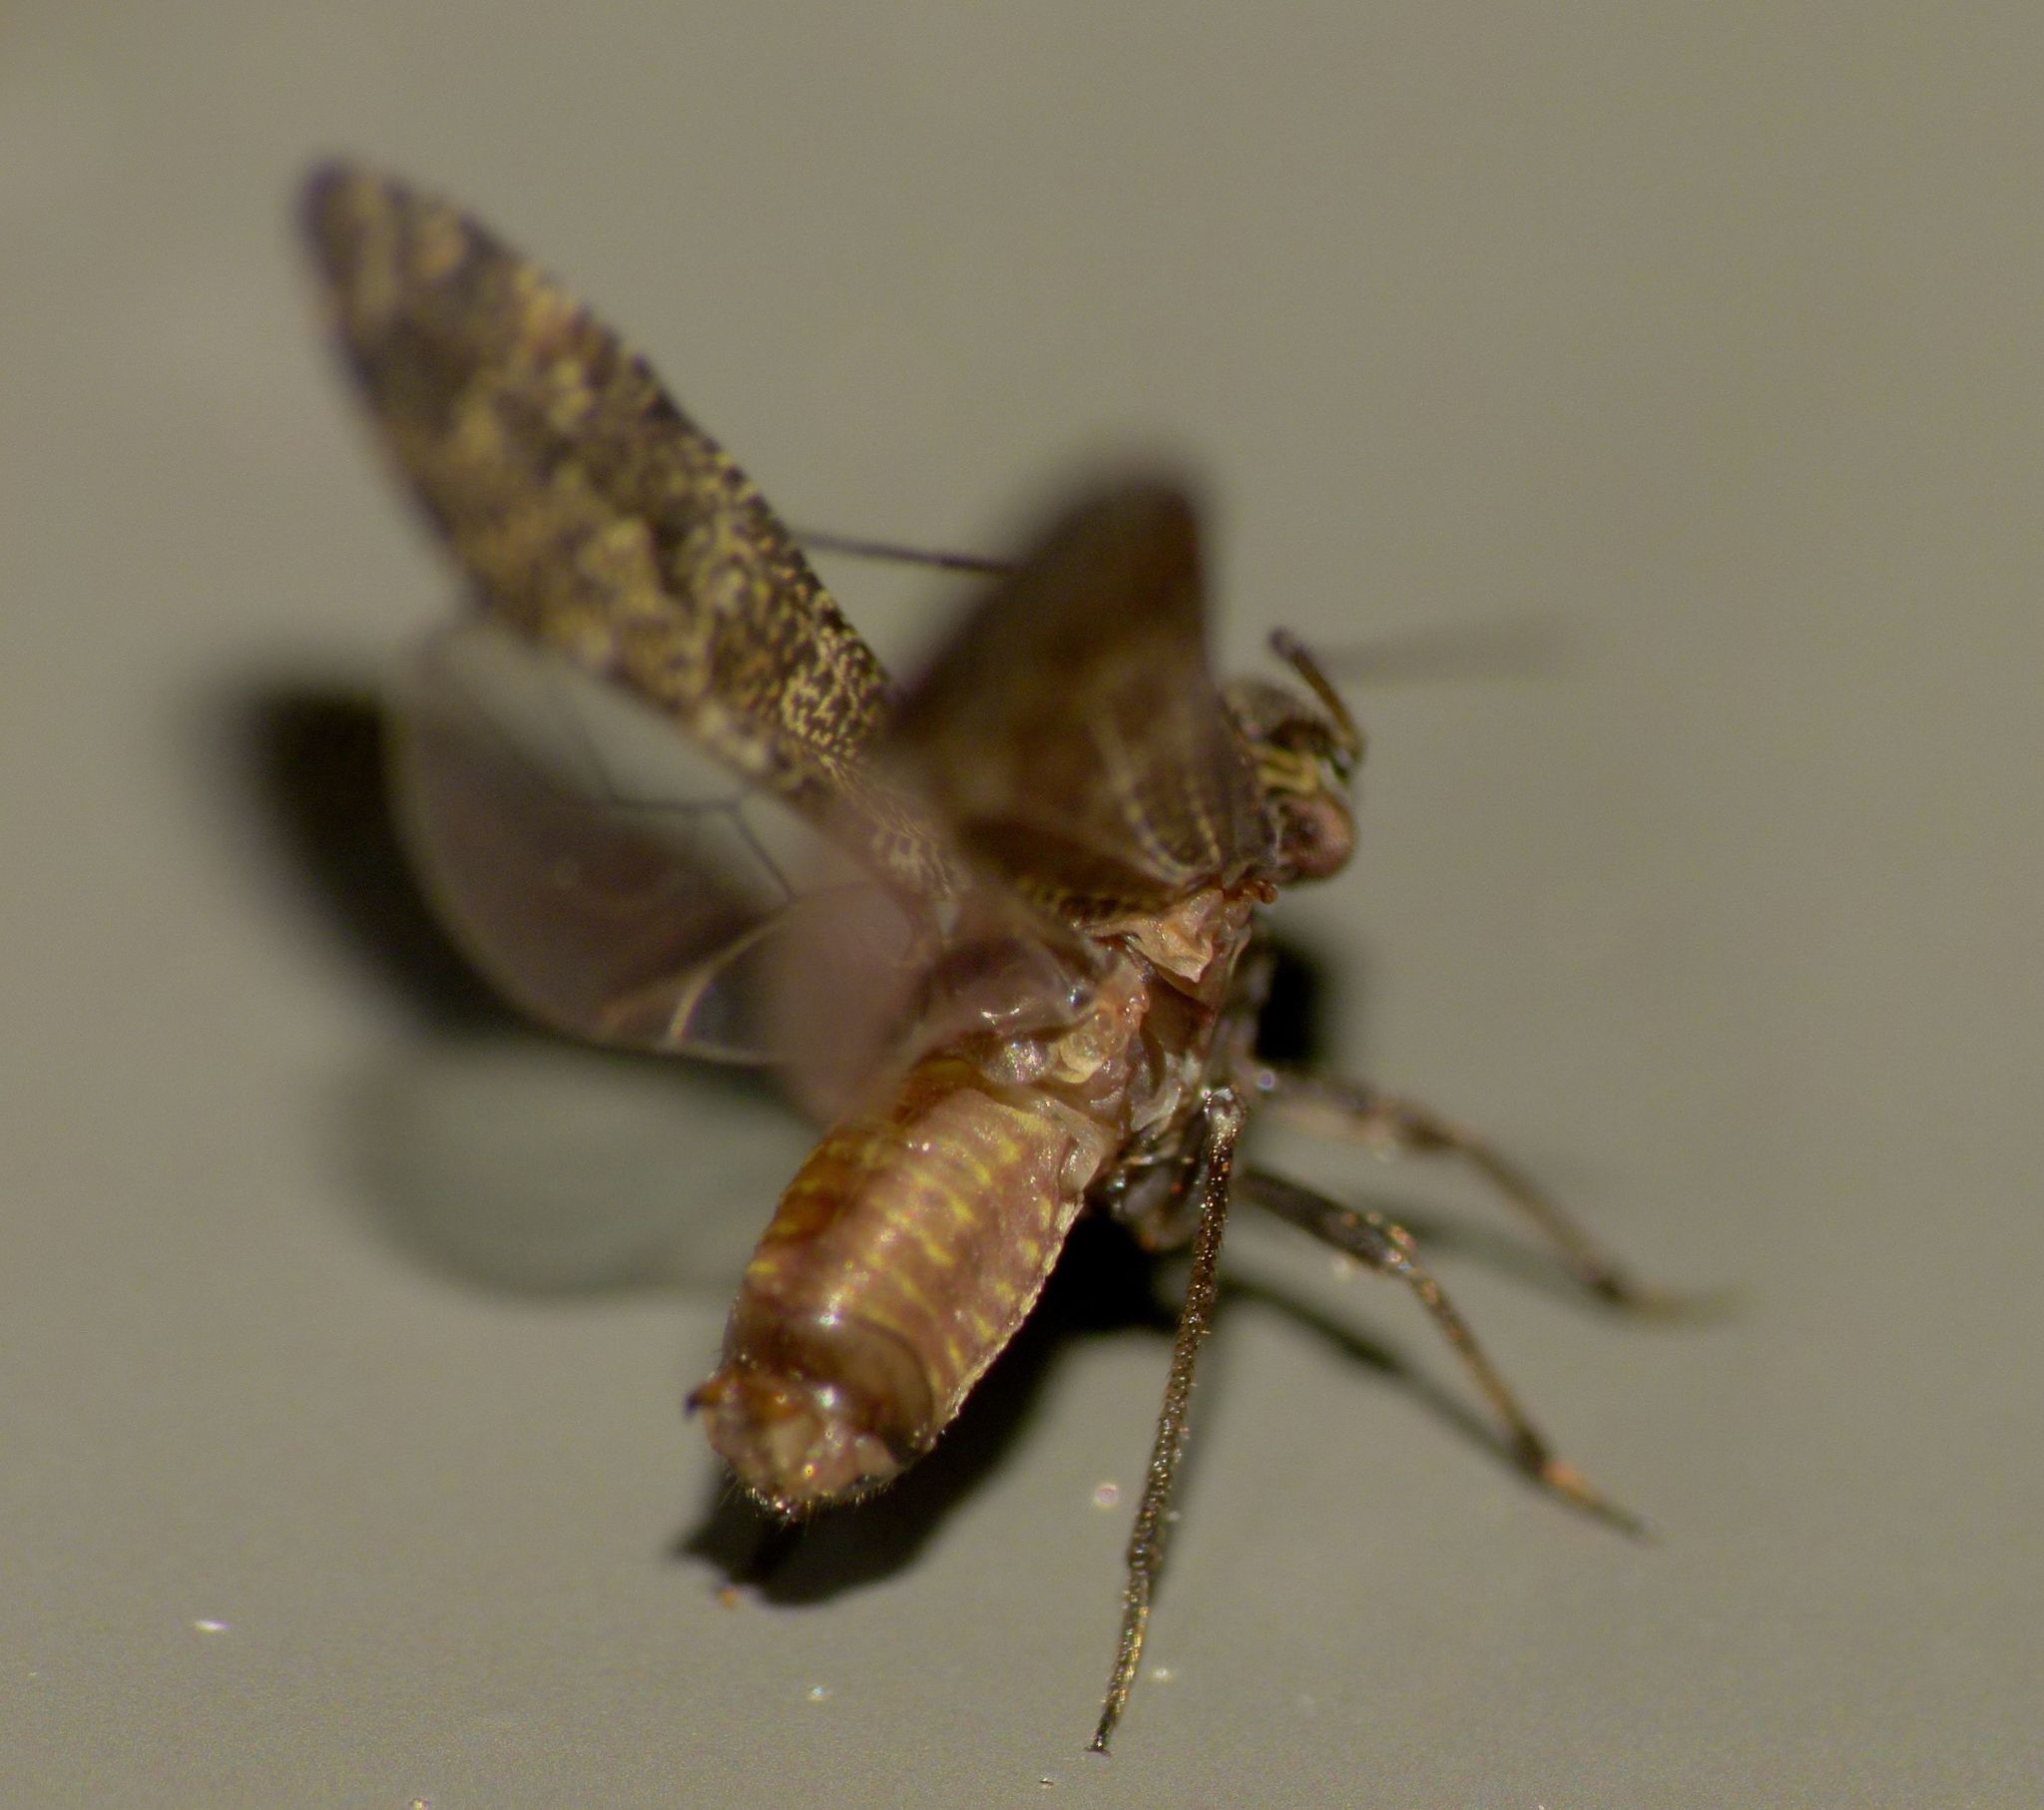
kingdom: Animalia
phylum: Arthropoda
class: Insecta
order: Psocodea
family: Myopsocidae
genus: Nimbopsocus
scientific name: Nimbopsocus australis
